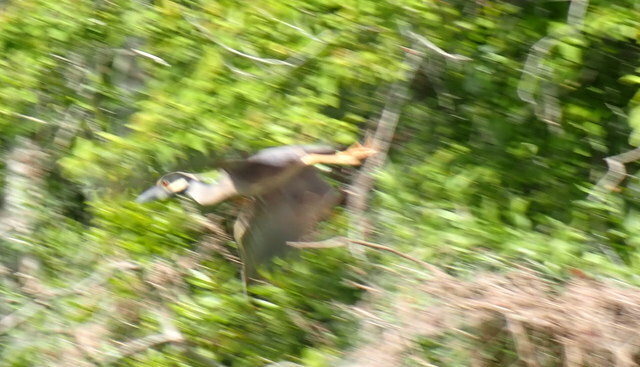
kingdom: Animalia
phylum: Chordata
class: Aves
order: Pelecaniformes
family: Ardeidae
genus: Nyctanassa
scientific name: Nyctanassa violacea
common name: Yellow-crowned night heron
